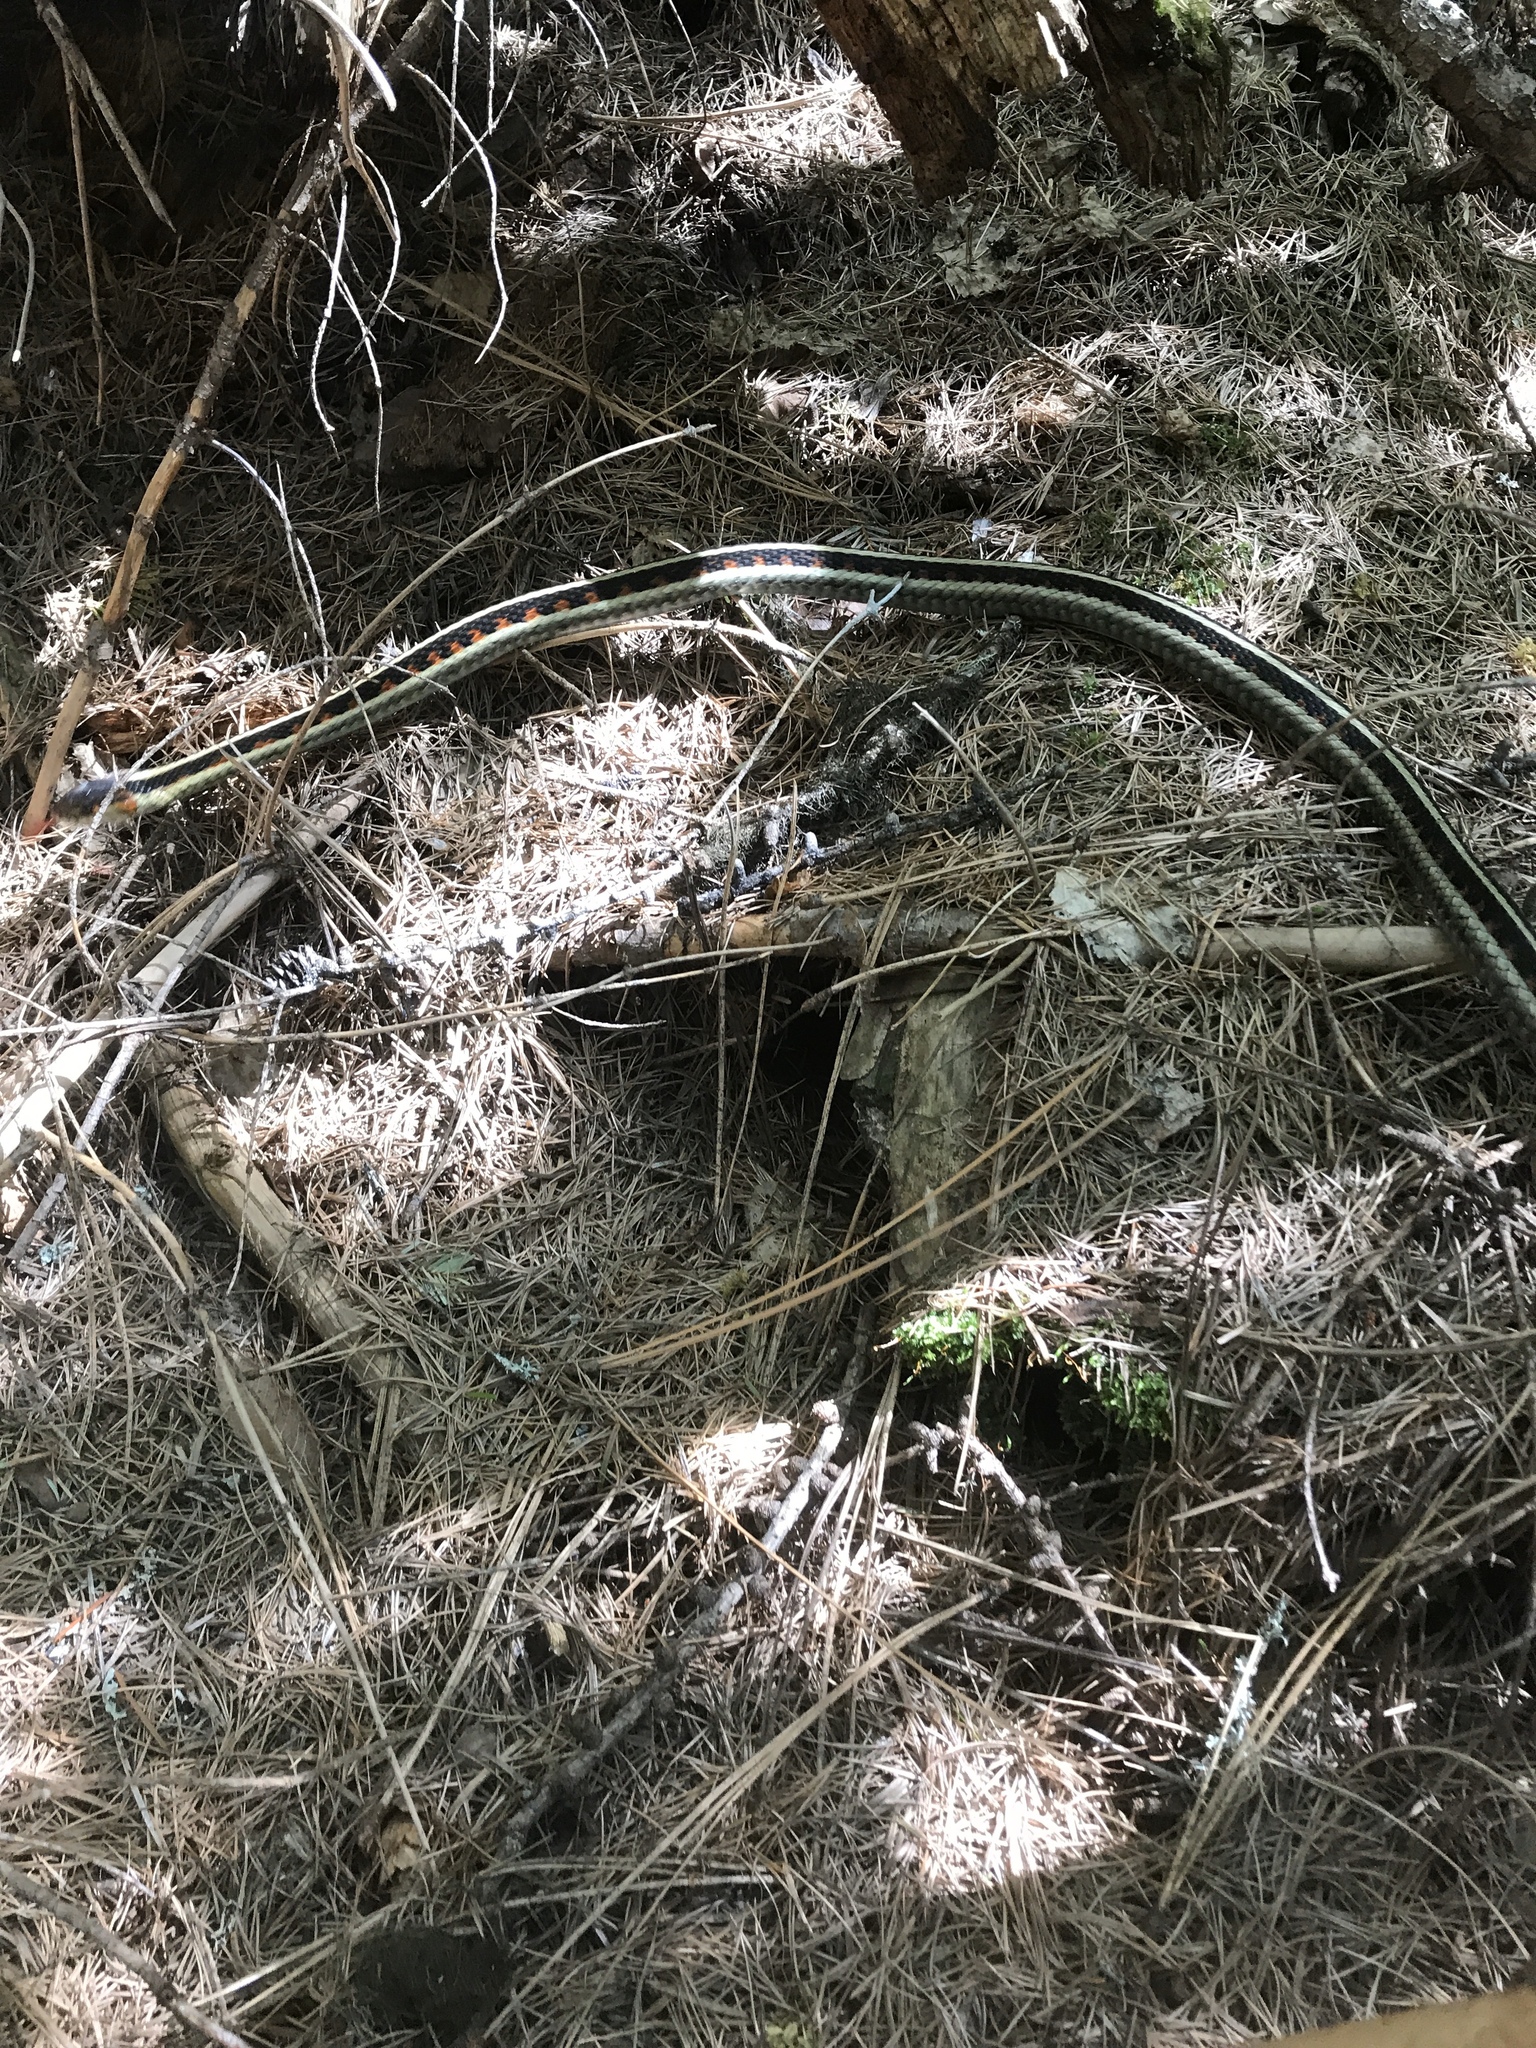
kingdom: Animalia
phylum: Chordata
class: Squamata
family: Colubridae
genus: Thamnophis
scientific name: Thamnophis sirtalis
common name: Common garter snake
